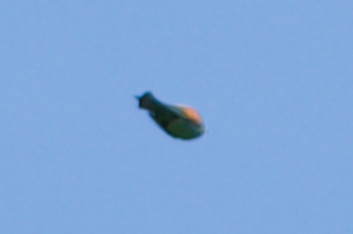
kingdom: Animalia
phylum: Chordata
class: Aves
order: Coraciiformes
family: Meropidae
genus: Merops
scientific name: Merops apiaster
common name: European bee-eater
